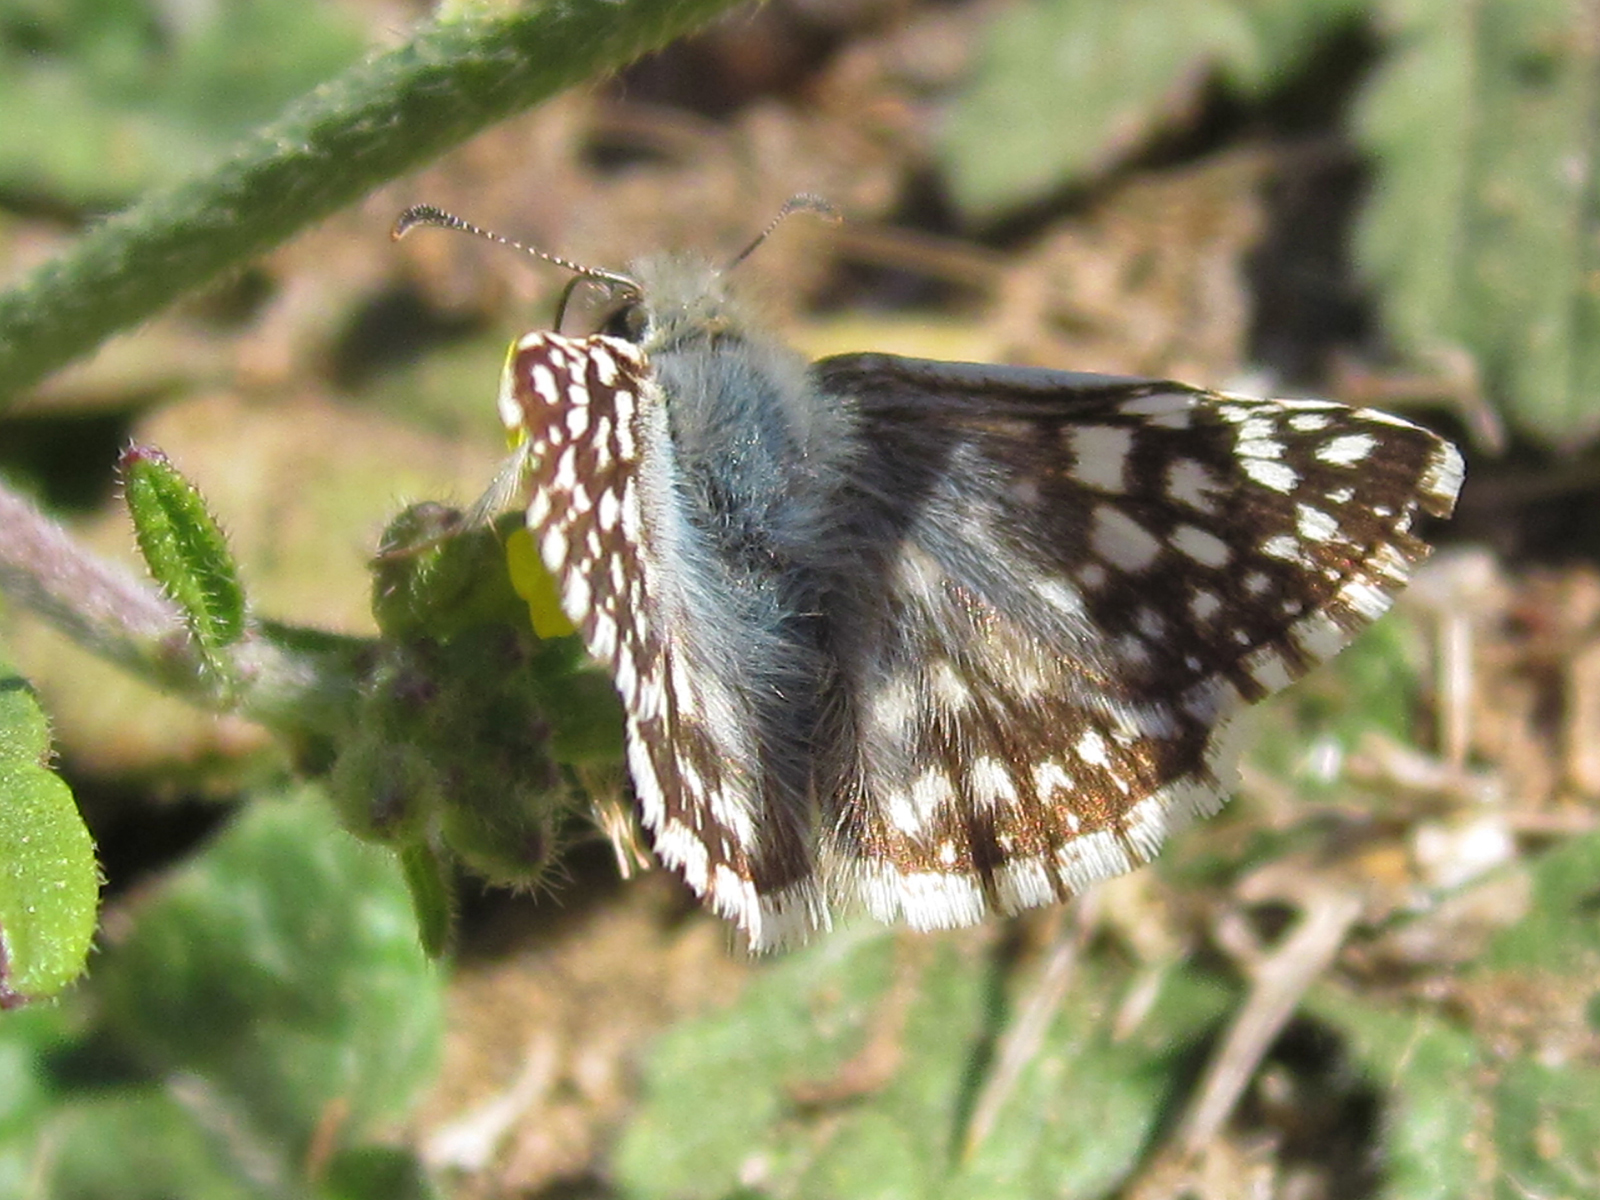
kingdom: Animalia
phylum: Arthropoda
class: Insecta
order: Lepidoptera
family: Hesperiidae
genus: Heliopetes
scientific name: Heliopetes americanus
